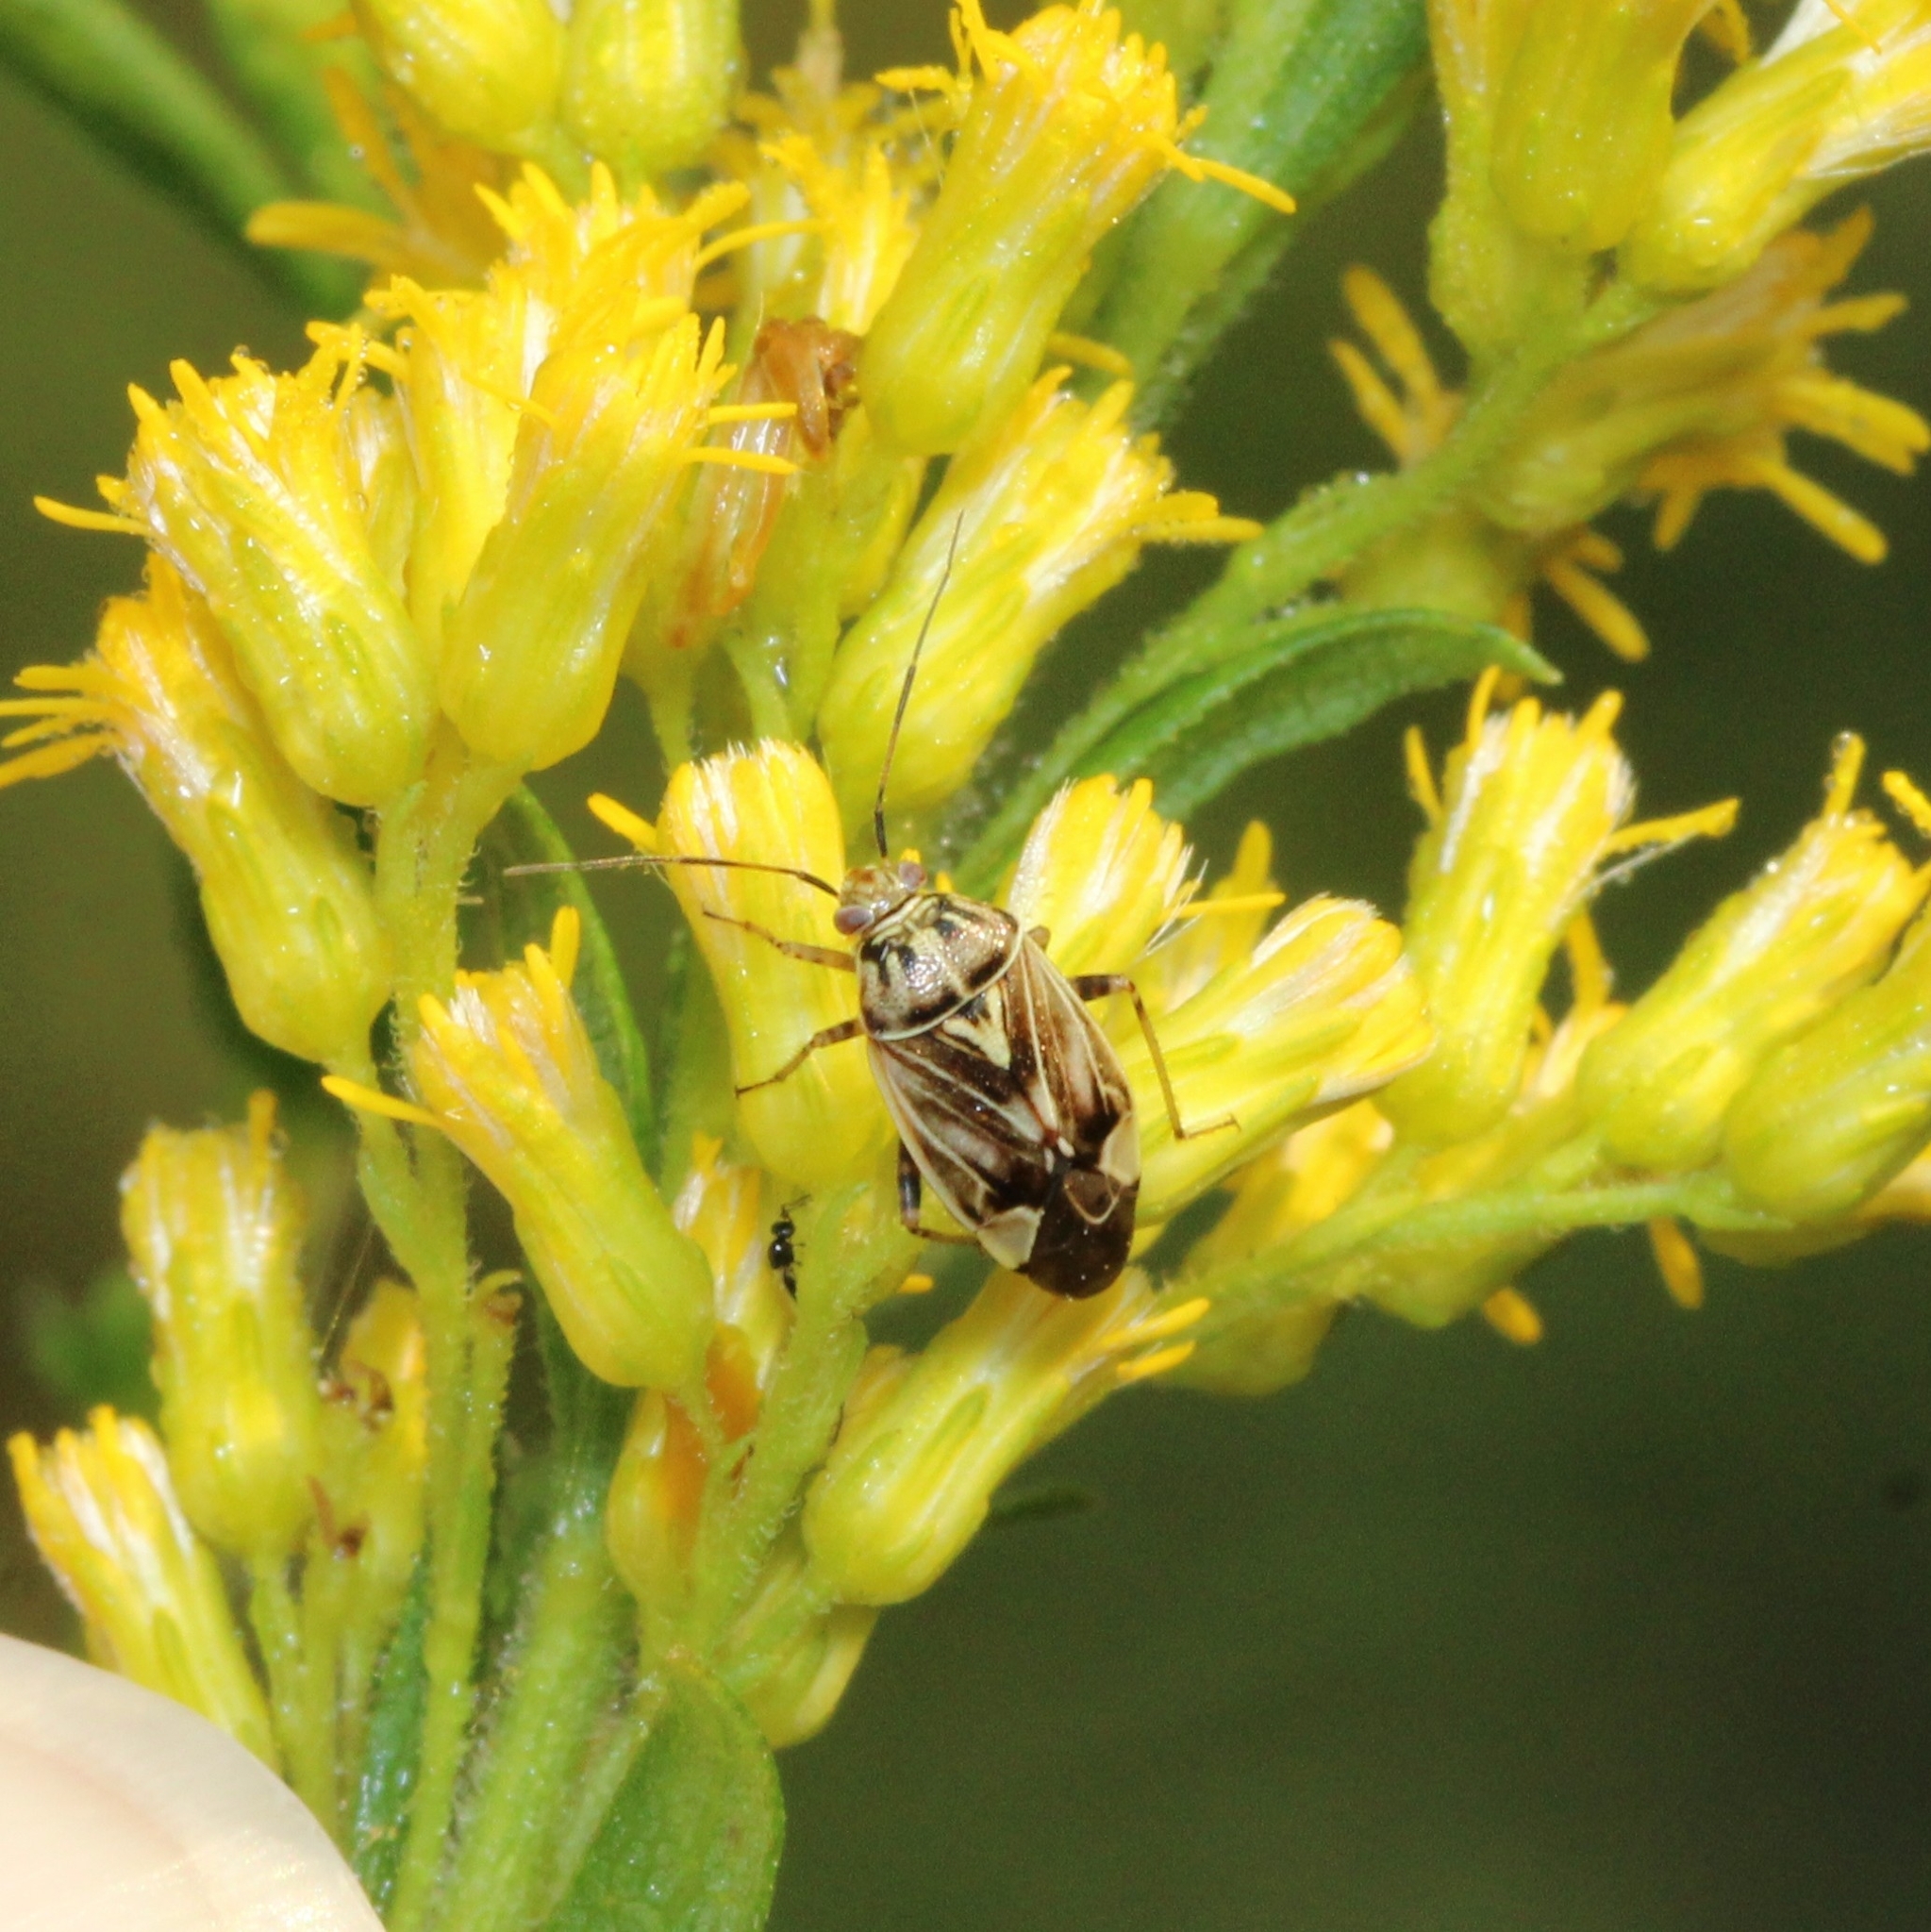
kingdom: Animalia
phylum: Arthropoda
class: Insecta
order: Hemiptera
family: Miridae
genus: Lygus
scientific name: Lygus lineolaris
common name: North american tarnished plant bug
